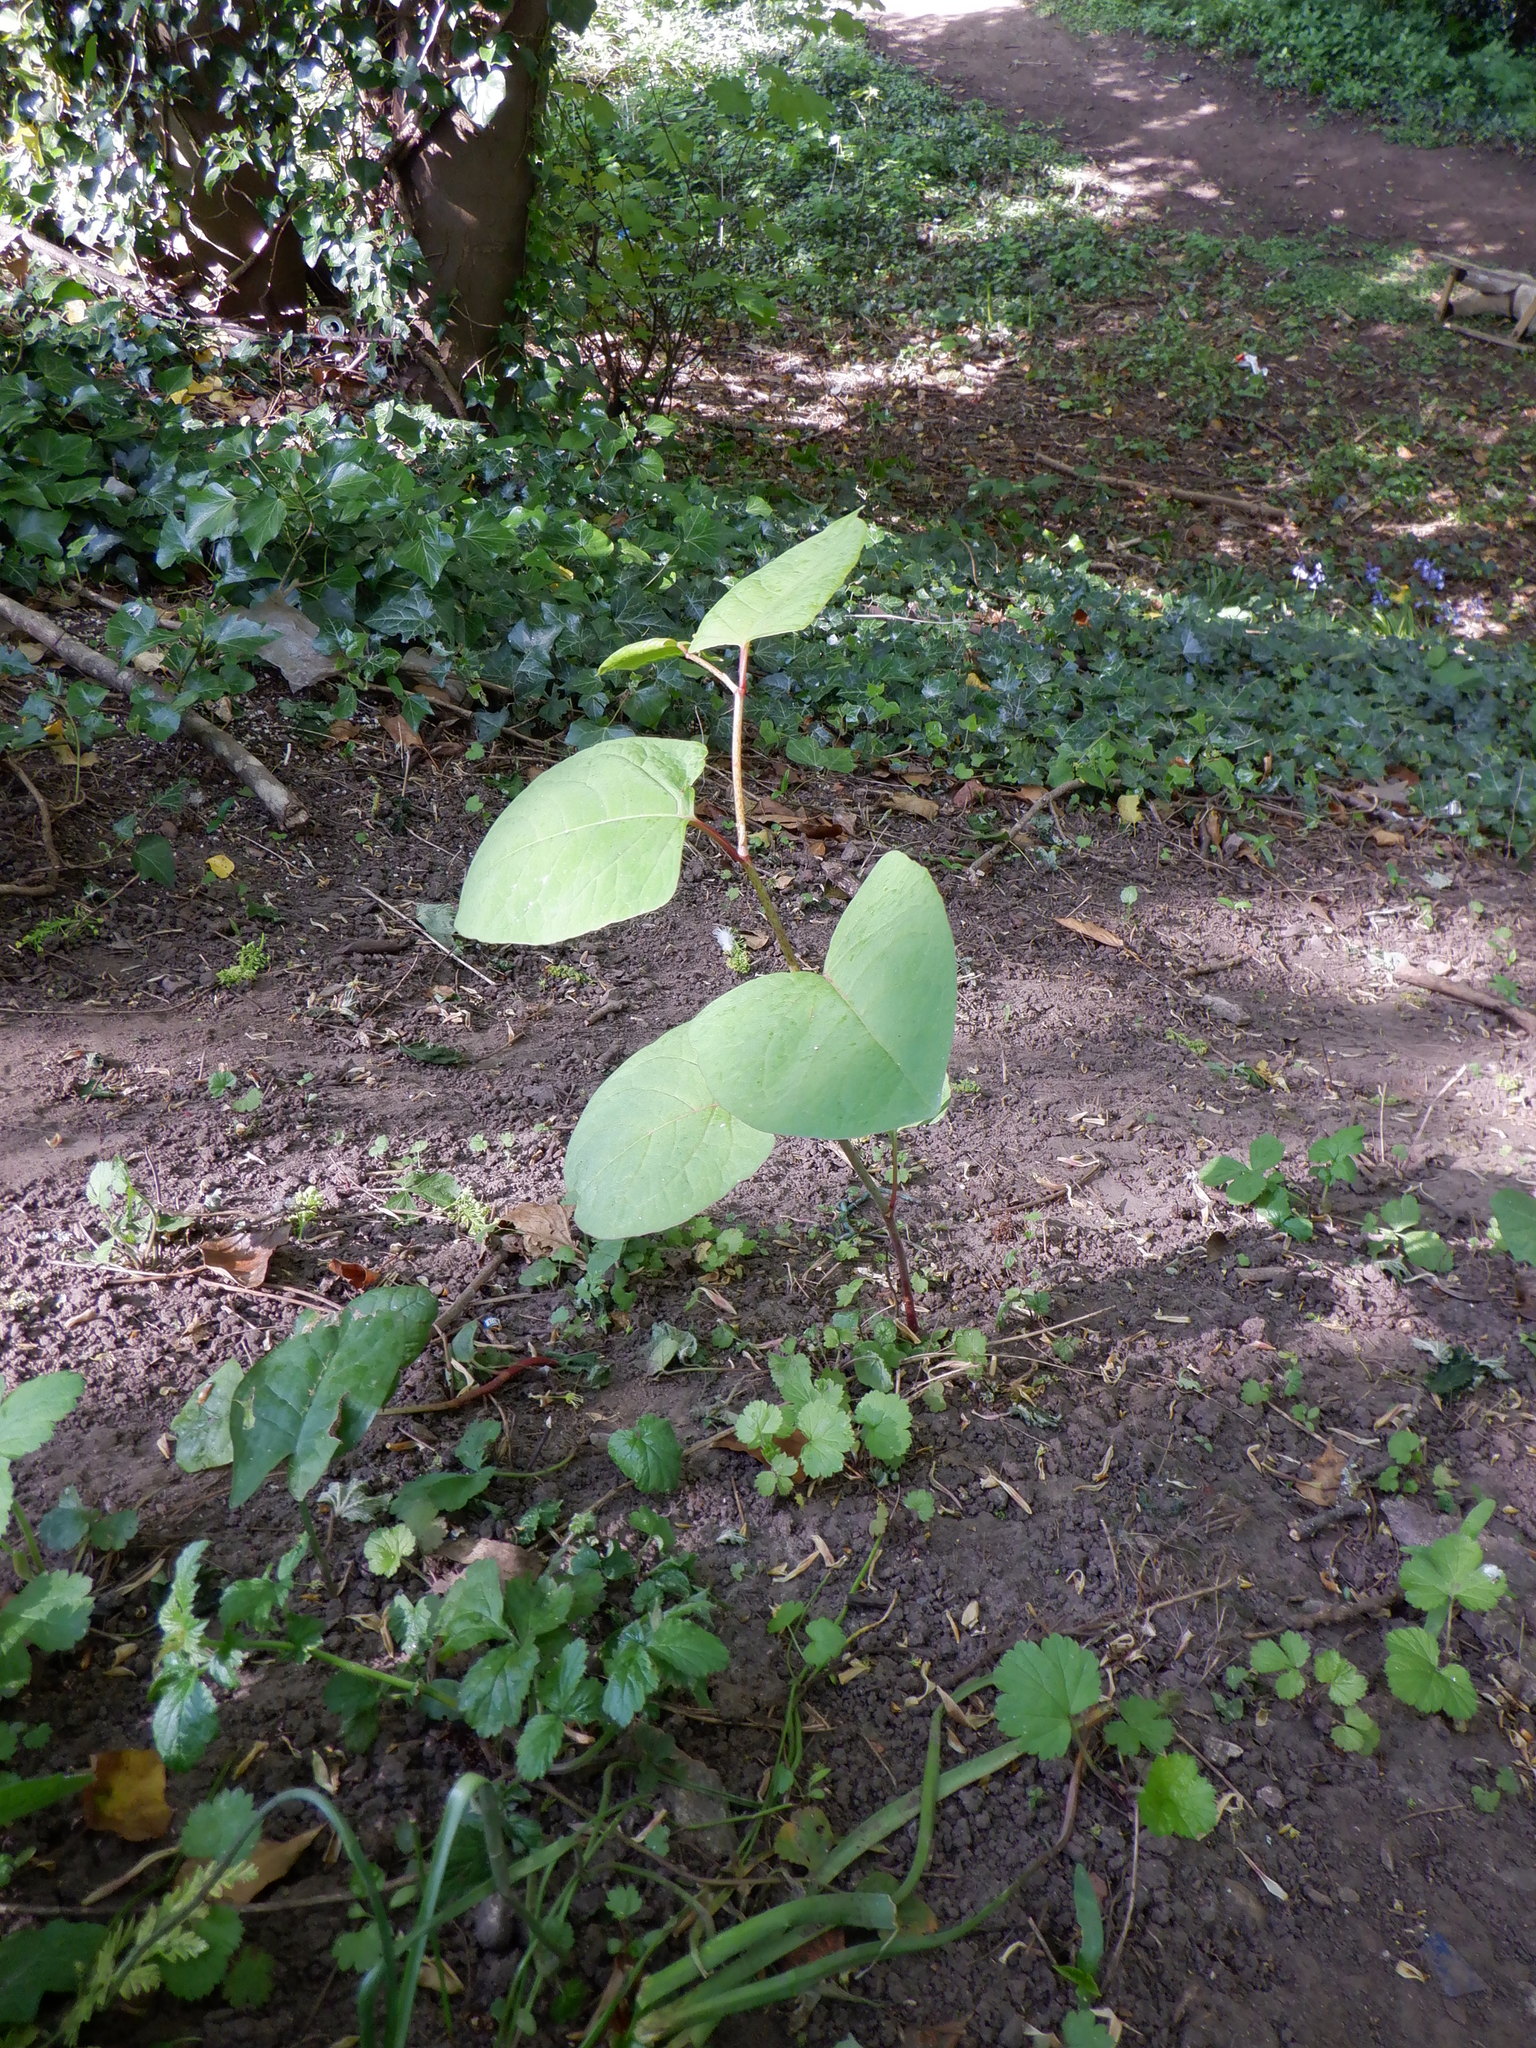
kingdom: Plantae
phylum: Tracheophyta
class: Magnoliopsida
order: Caryophyllales
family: Polygonaceae
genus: Reynoutria
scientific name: Reynoutria japonica
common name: Japanese knotweed
